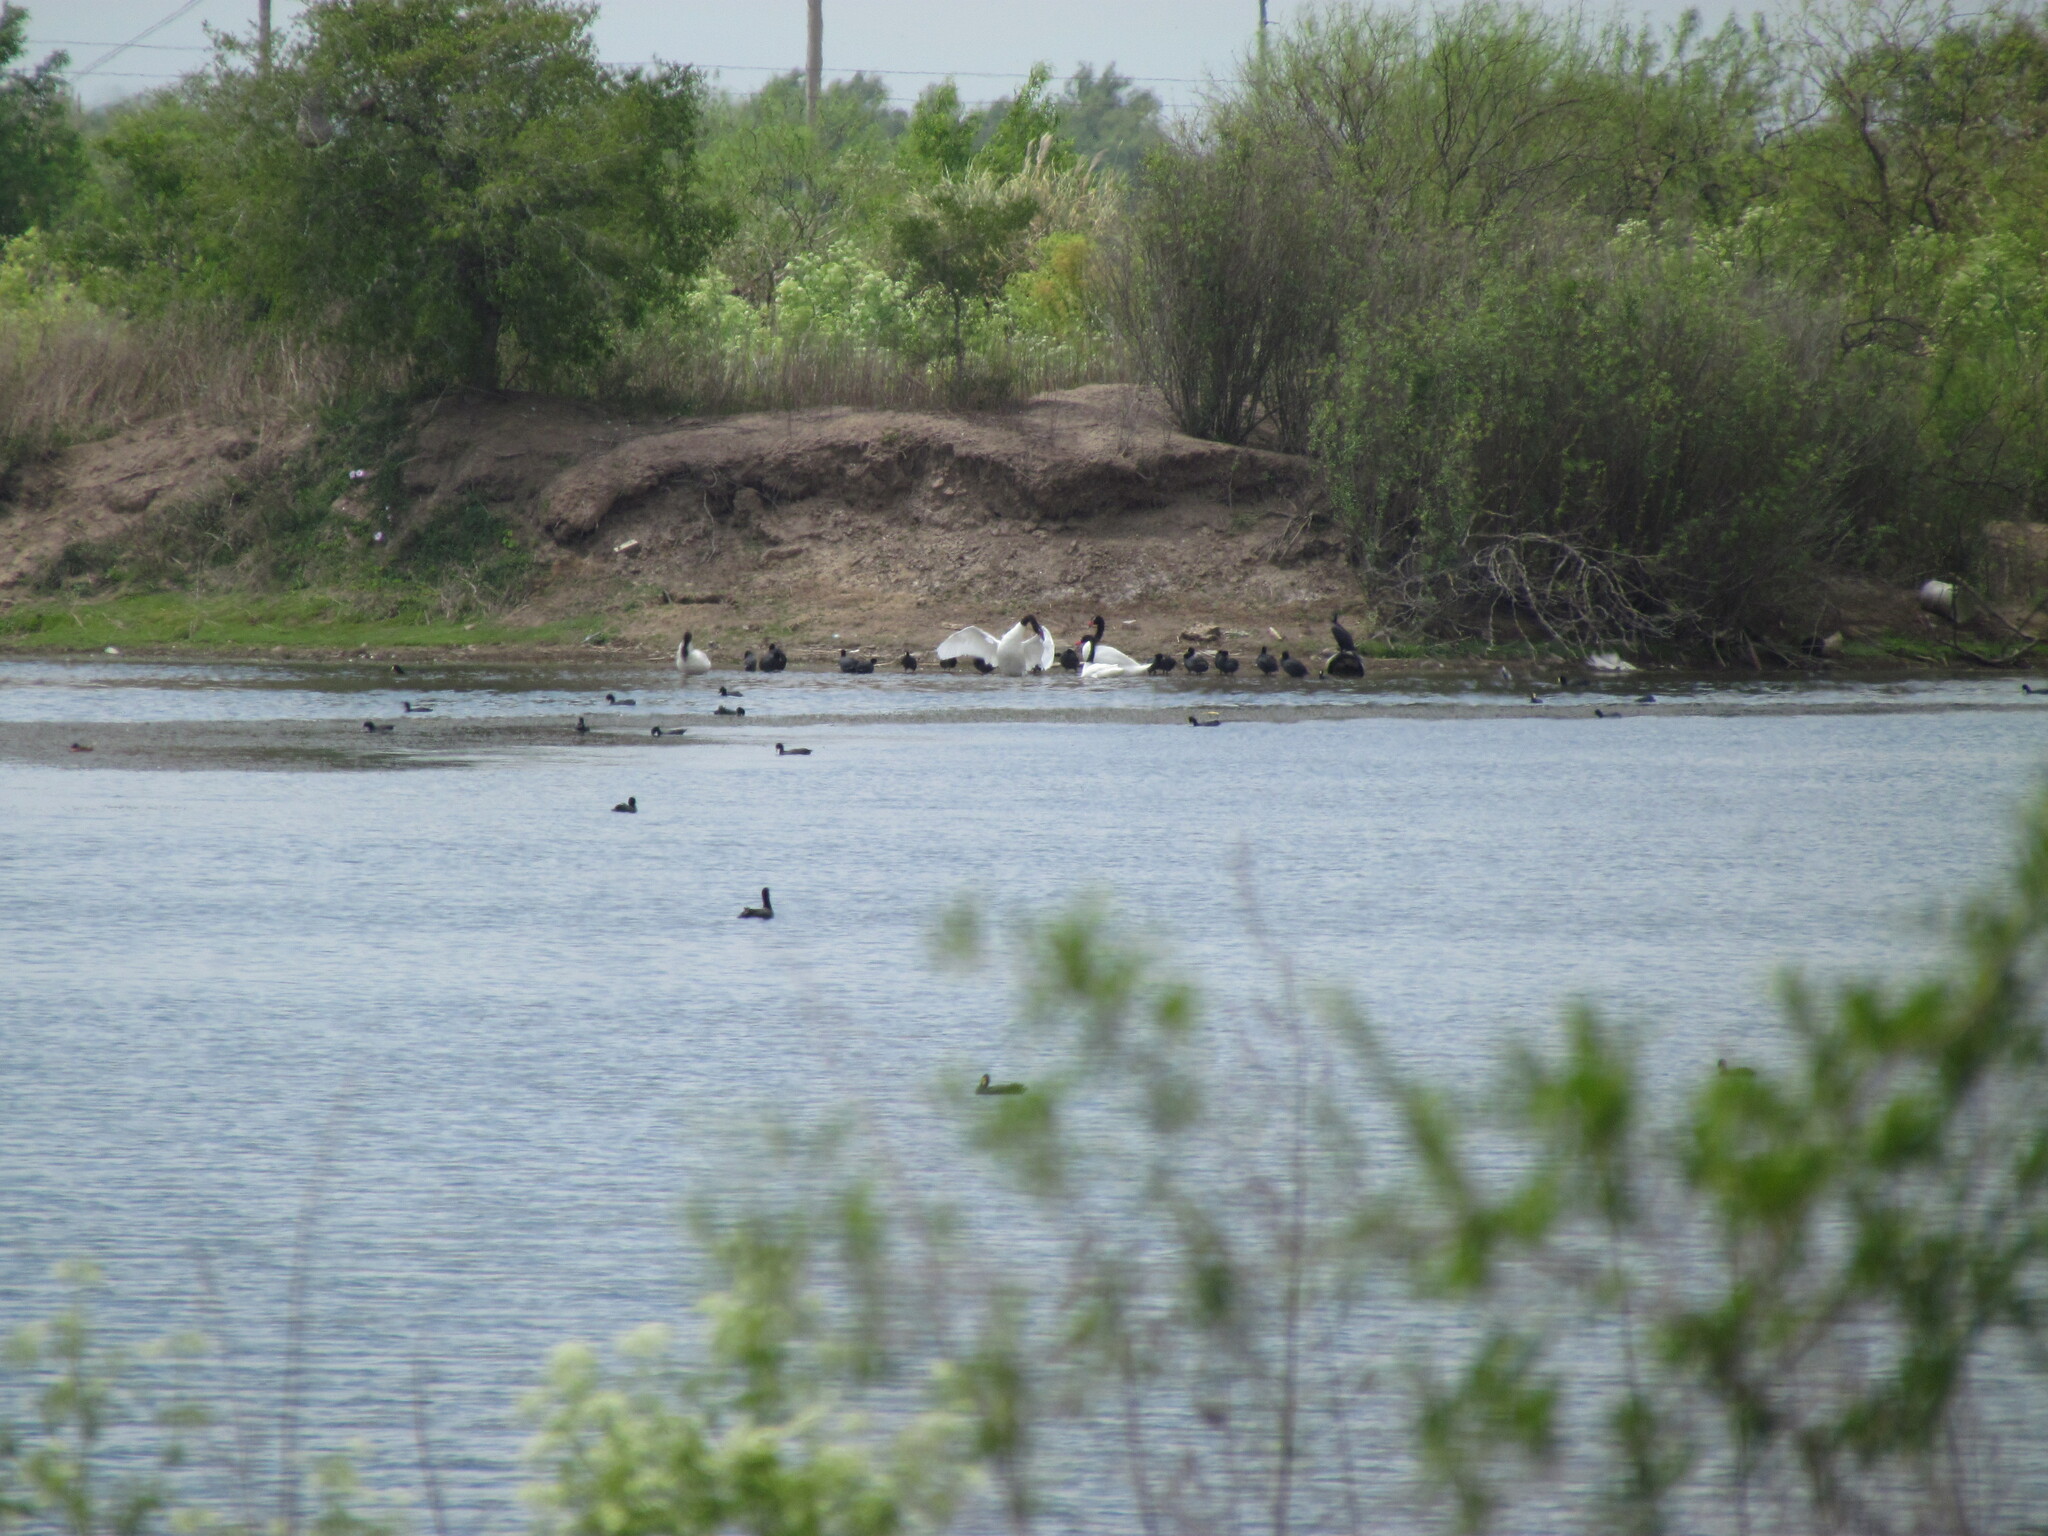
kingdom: Animalia
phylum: Chordata
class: Aves
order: Anseriformes
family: Anatidae
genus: Cygnus
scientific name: Cygnus melancoryphus
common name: Black-necked swan
